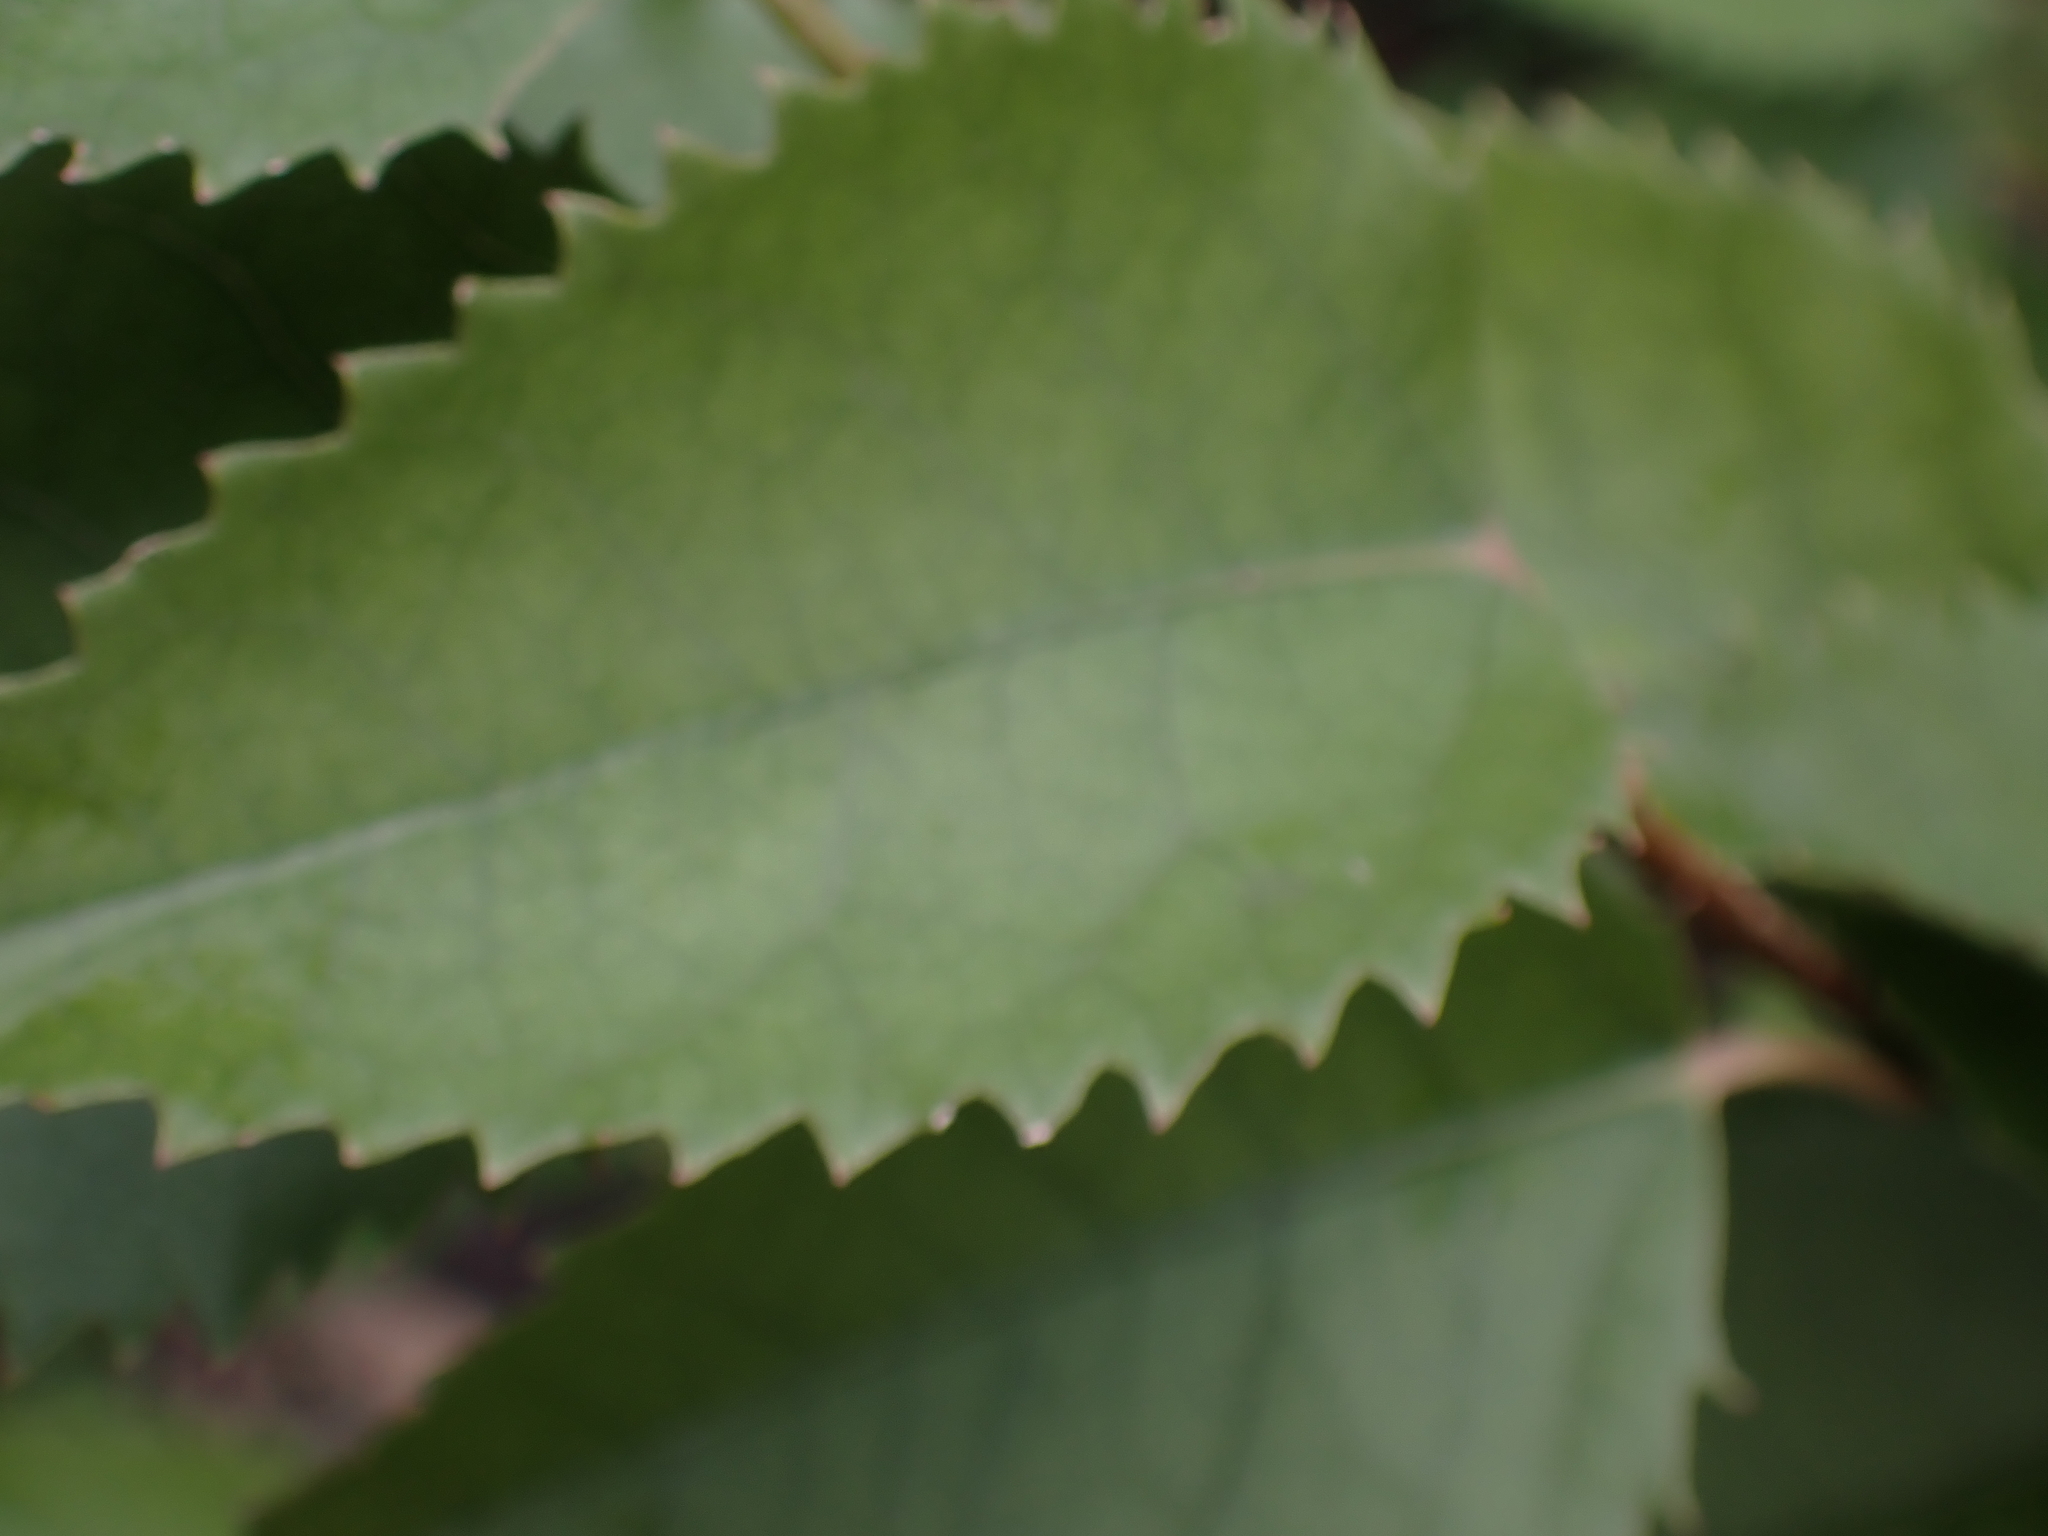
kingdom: Plantae
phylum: Tracheophyta
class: Magnoliopsida
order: Malvales
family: Malvaceae
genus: Hoheria
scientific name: Hoheria populnea
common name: Lacebark
